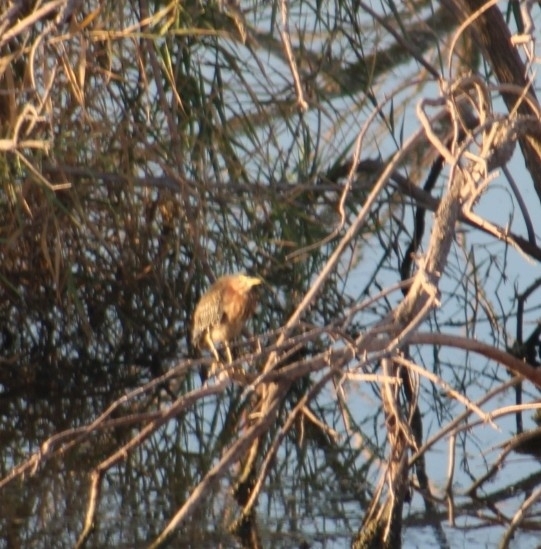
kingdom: Animalia
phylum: Chordata
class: Aves
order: Pelecaniformes
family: Ardeidae
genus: Butorides
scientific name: Butorides virescens
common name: Green heron
